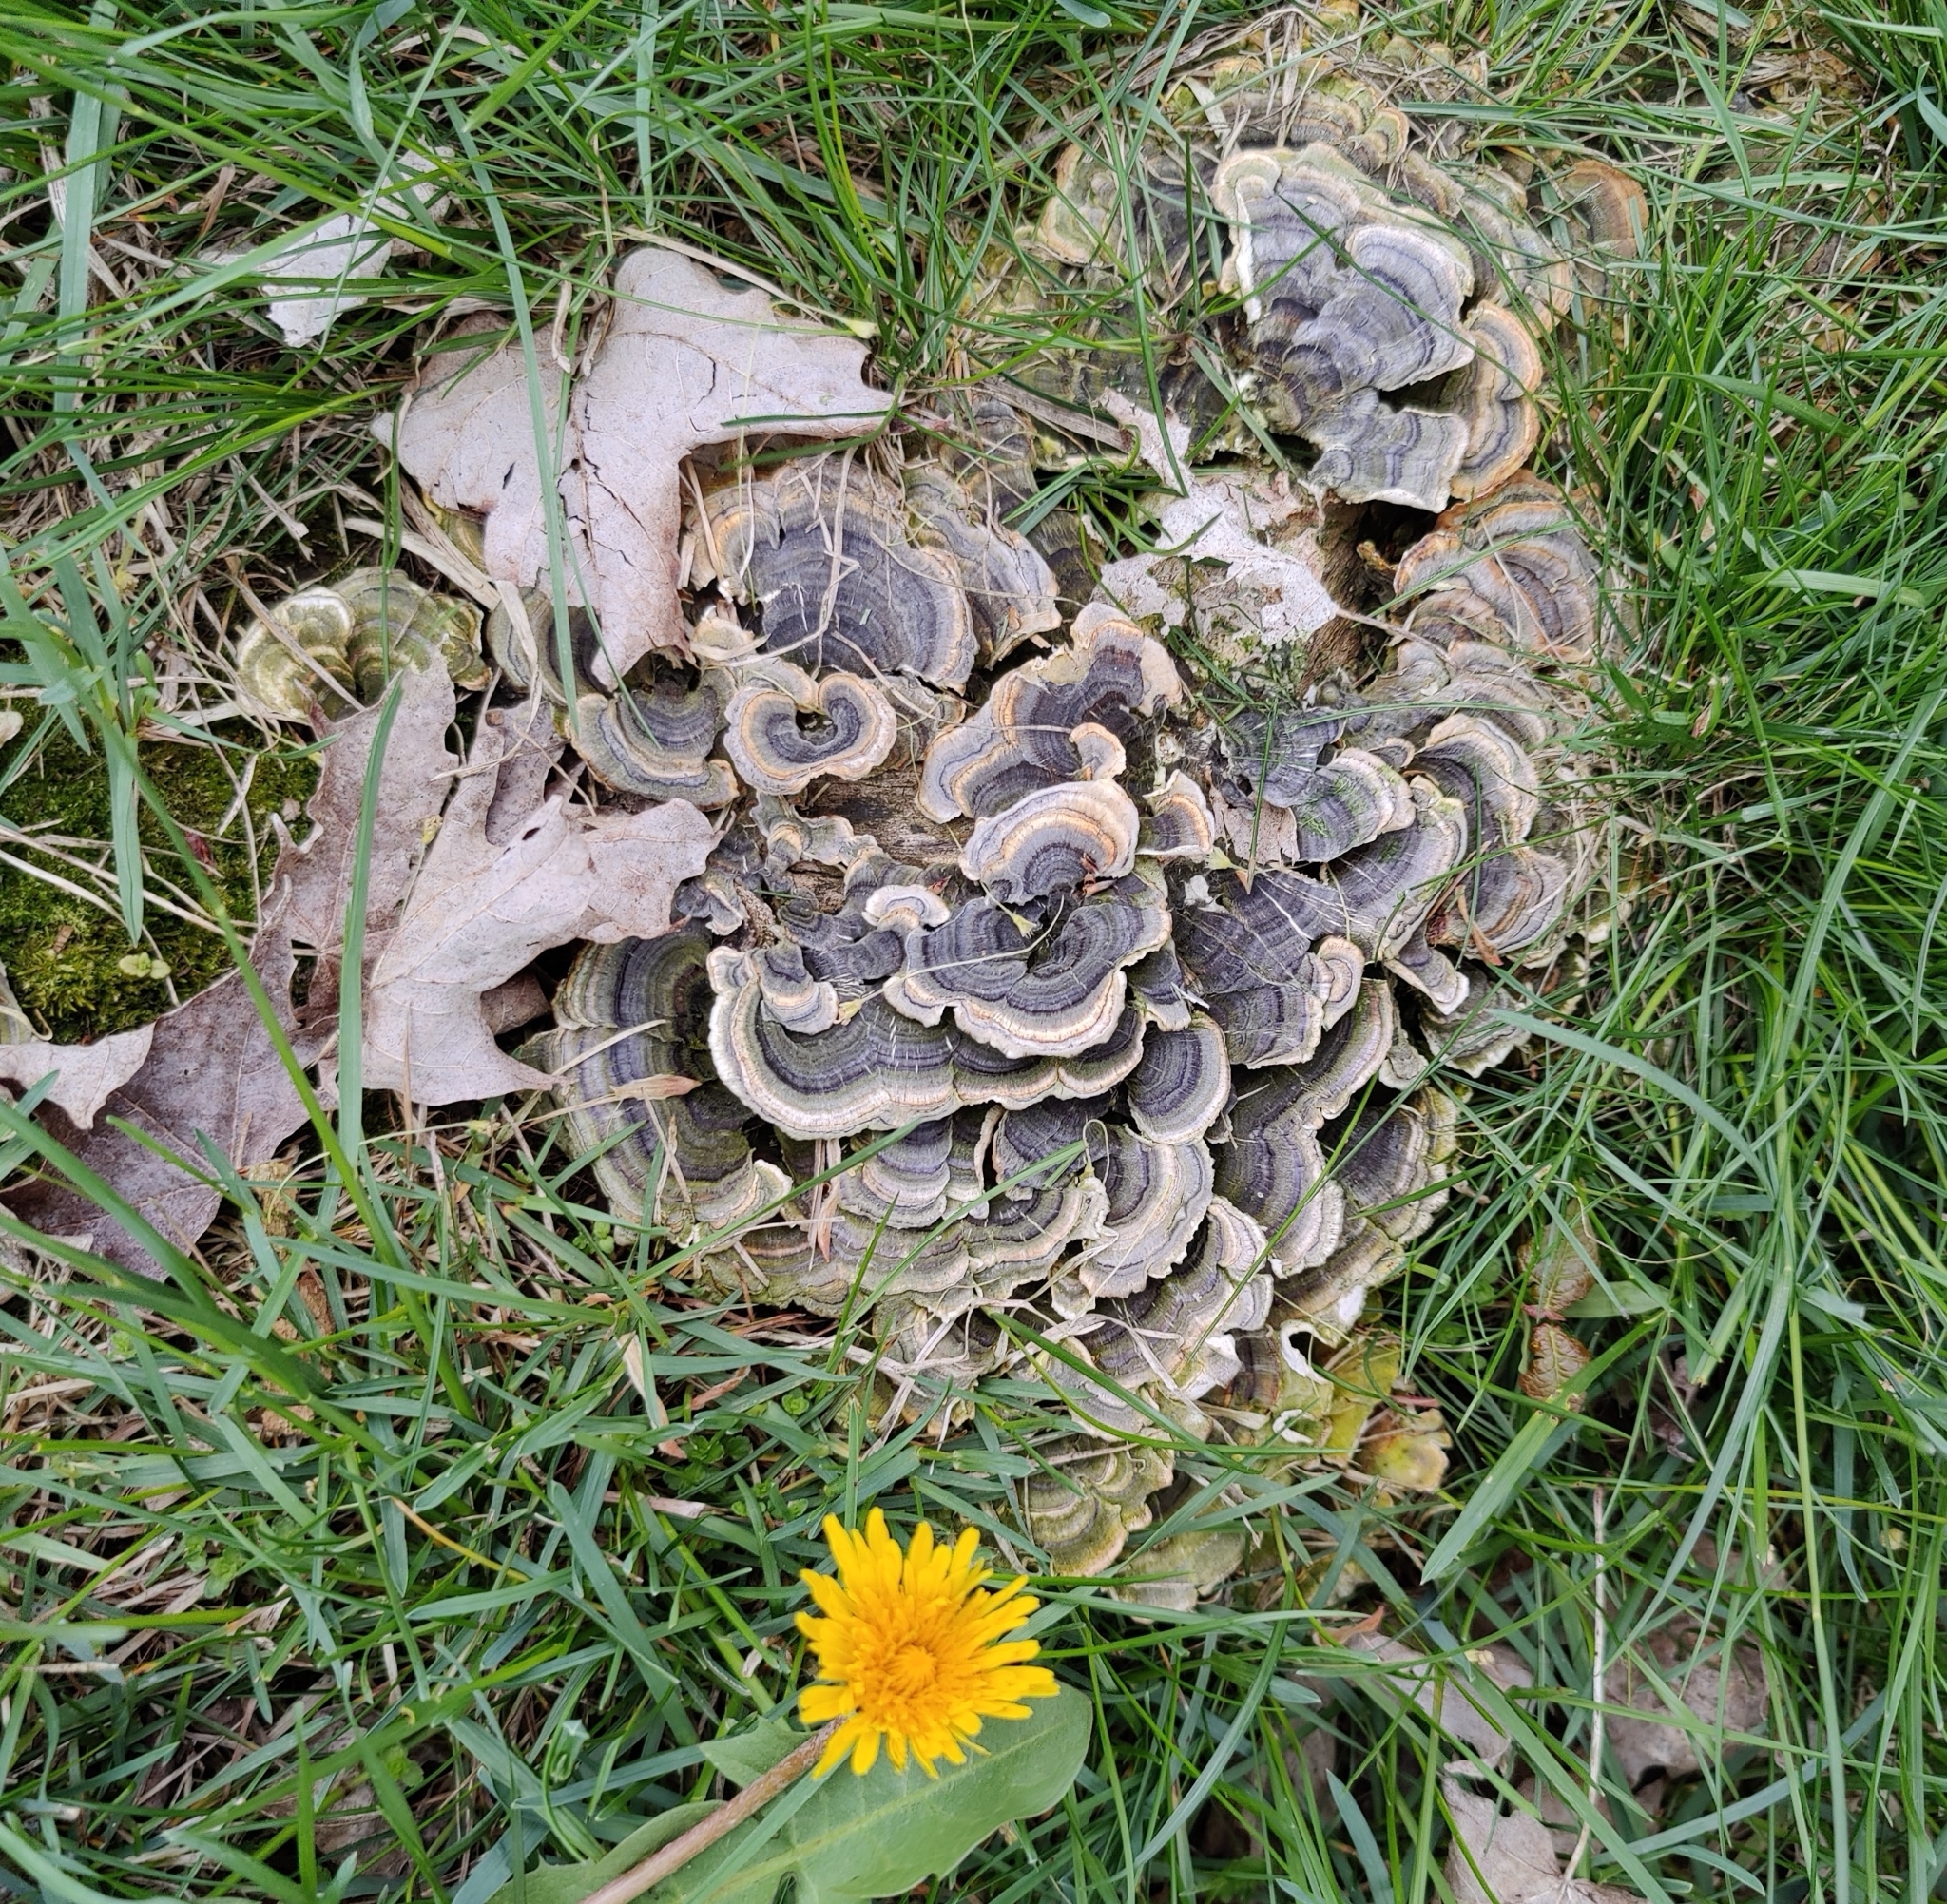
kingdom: Fungi
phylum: Basidiomycota
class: Agaricomycetes
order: Polyporales
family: Polyporaceae
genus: Trametes
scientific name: Trametes versicolor
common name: Turkeytail
